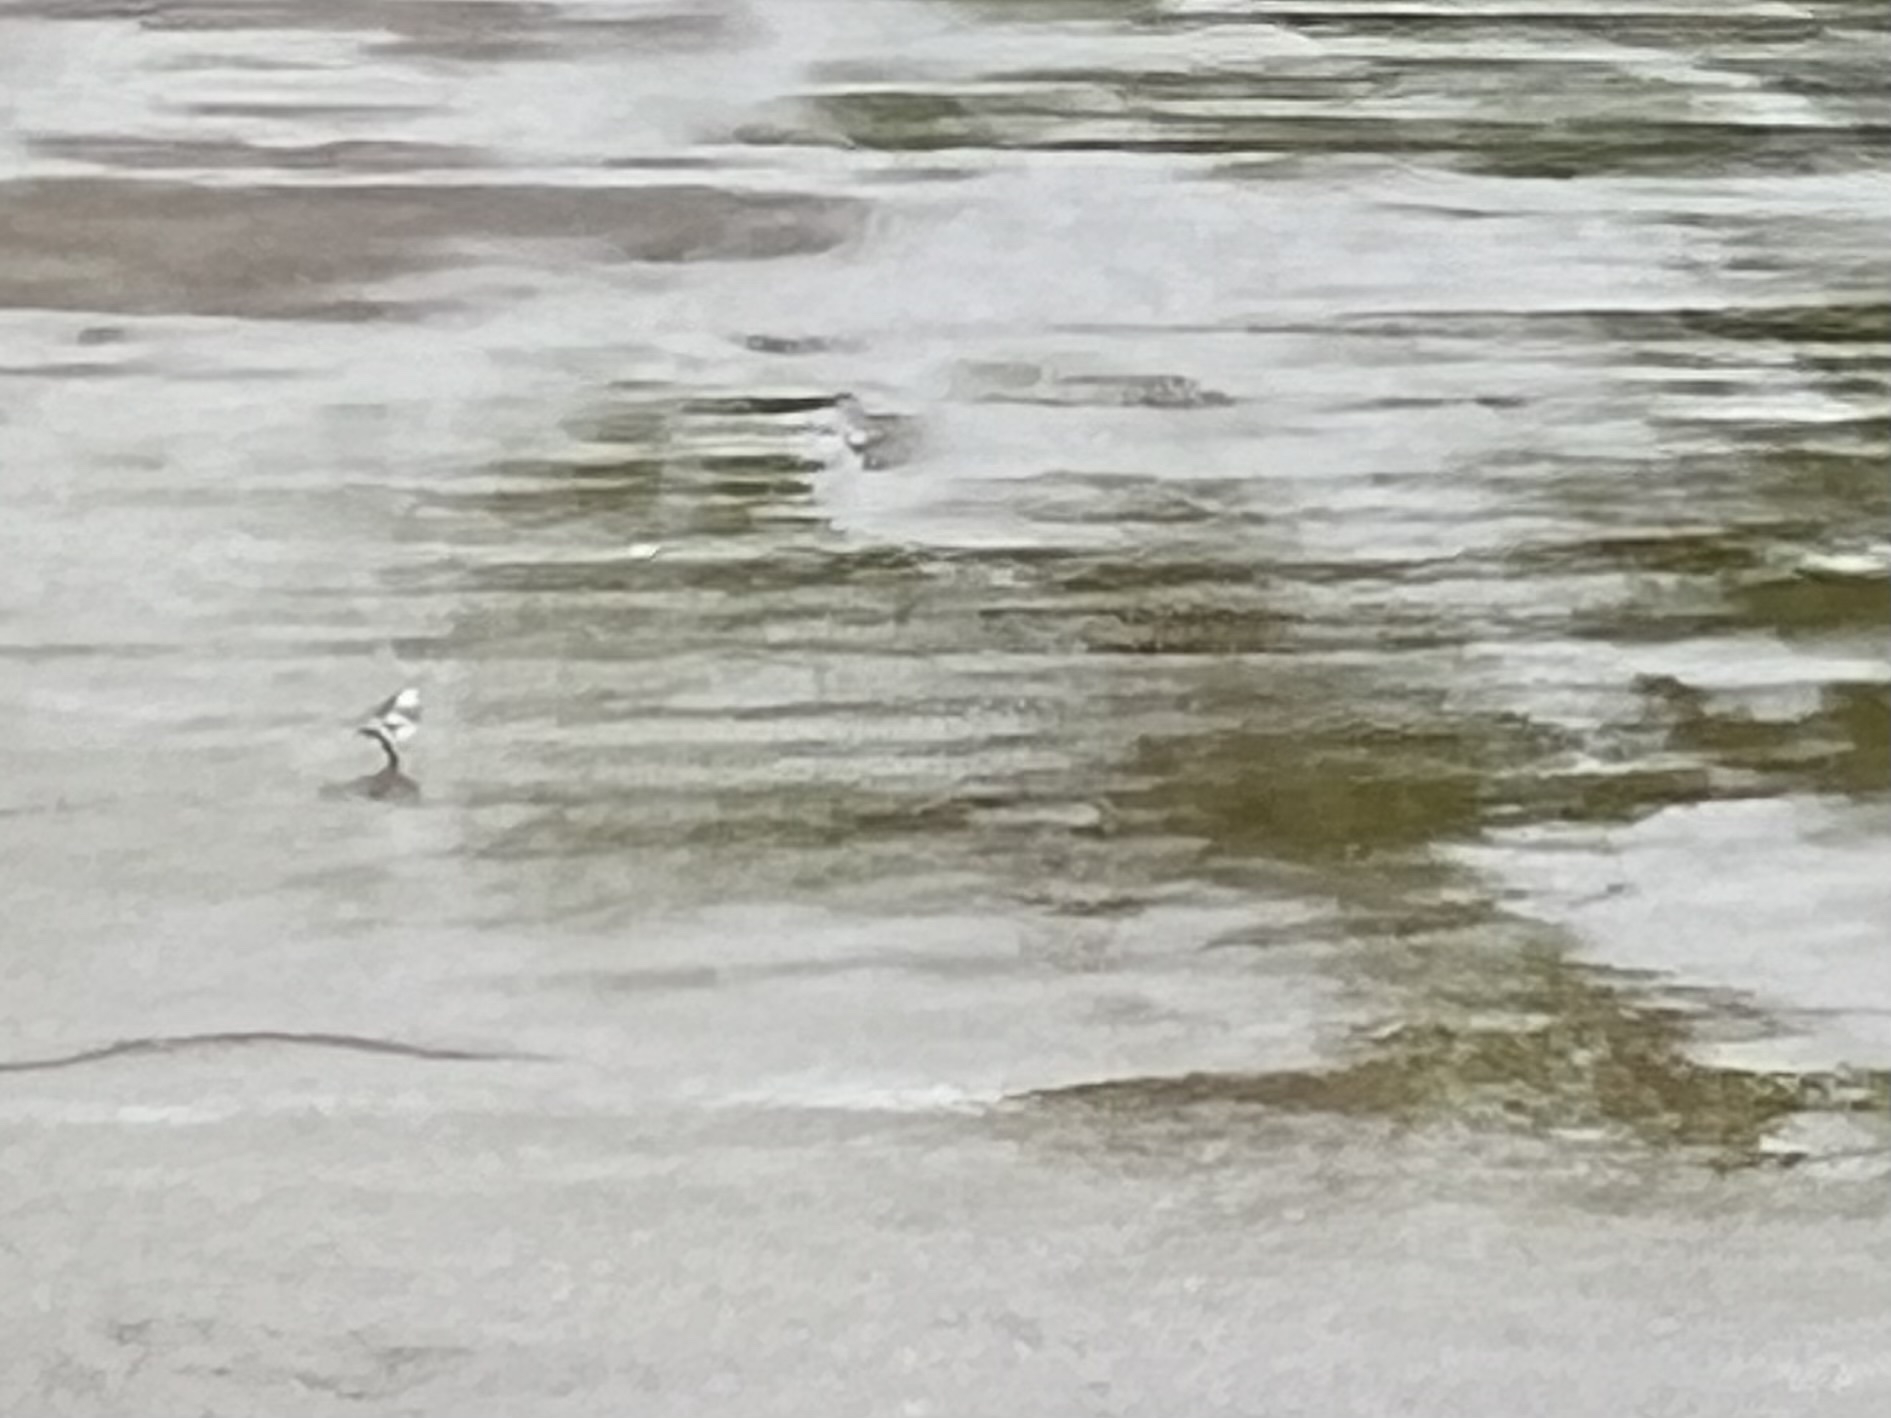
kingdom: Animalia
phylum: Chordata
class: Aves
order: Passeriformes
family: Motacillidae
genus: Motacilla
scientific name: Motacilla alba
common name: White wagtail
